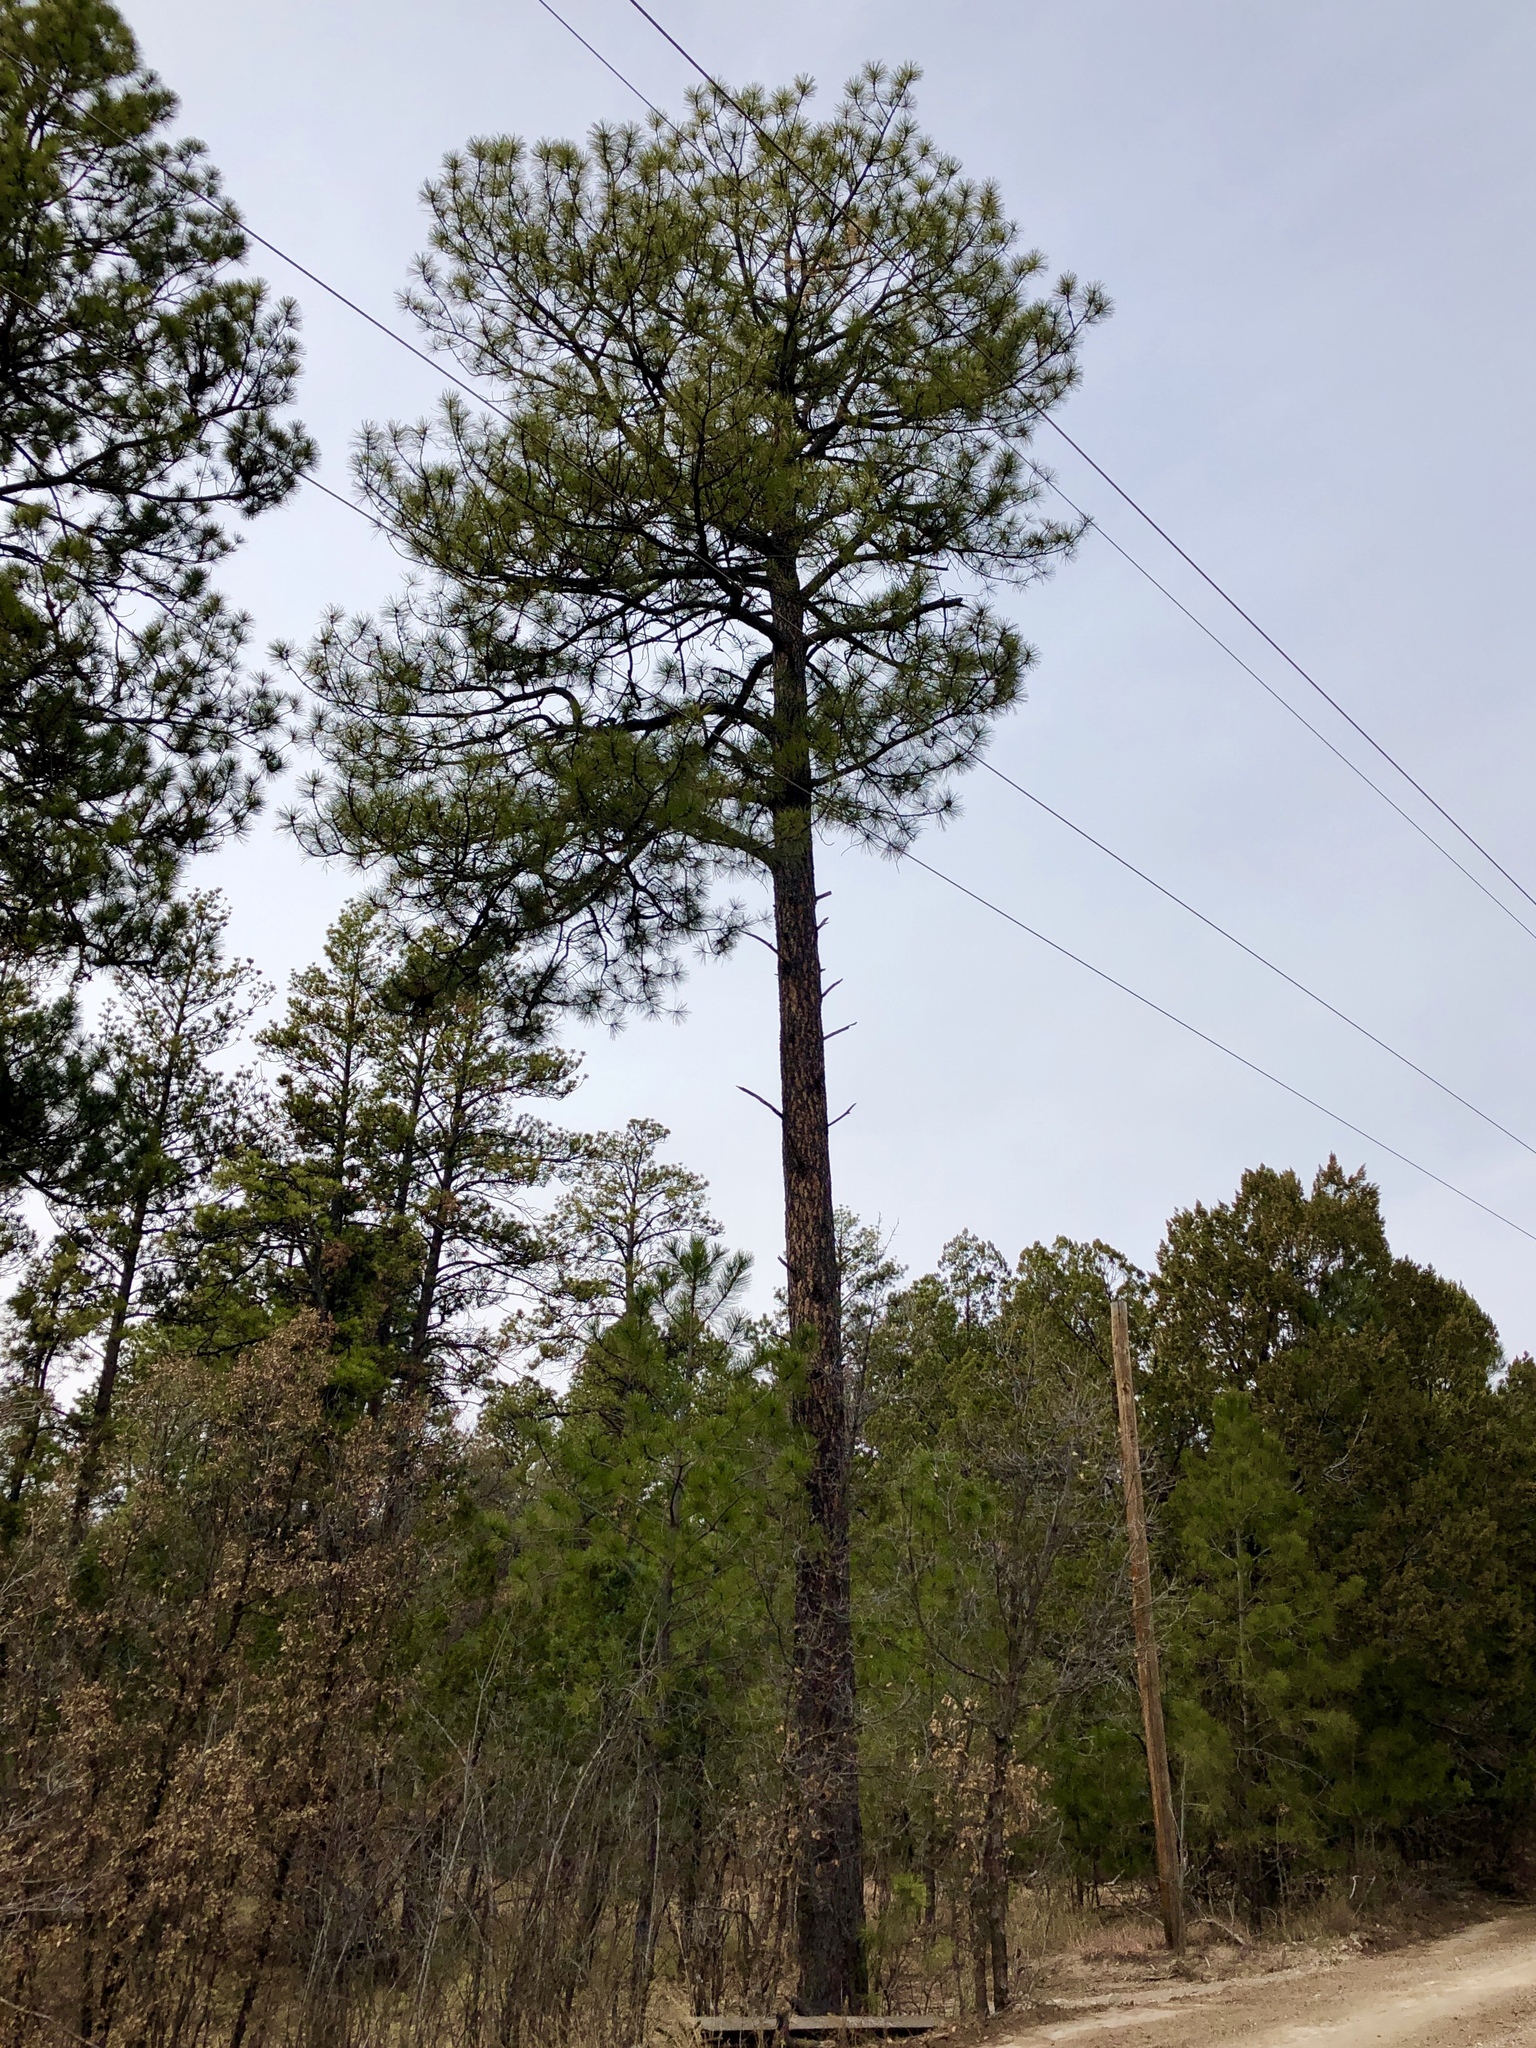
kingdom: Plantae
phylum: Tracheophyta
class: Pinopsida
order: Pinales
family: Pinaceae
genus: Pinus
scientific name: Pinus ponderosa
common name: Western yellow-pine
